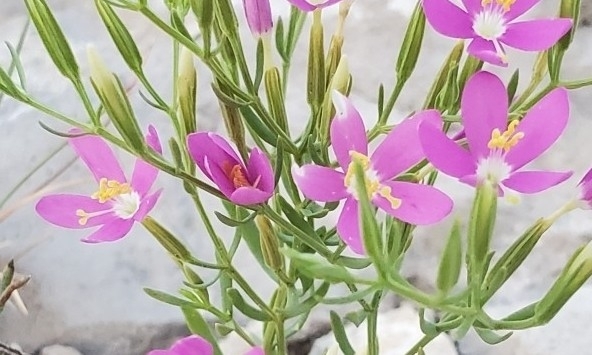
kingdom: Plantae
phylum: Tracheophyta
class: Magnoliopsida
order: Gentianales
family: Gentianaceae
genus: Zeltnera
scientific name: Zeltnera calycosa
